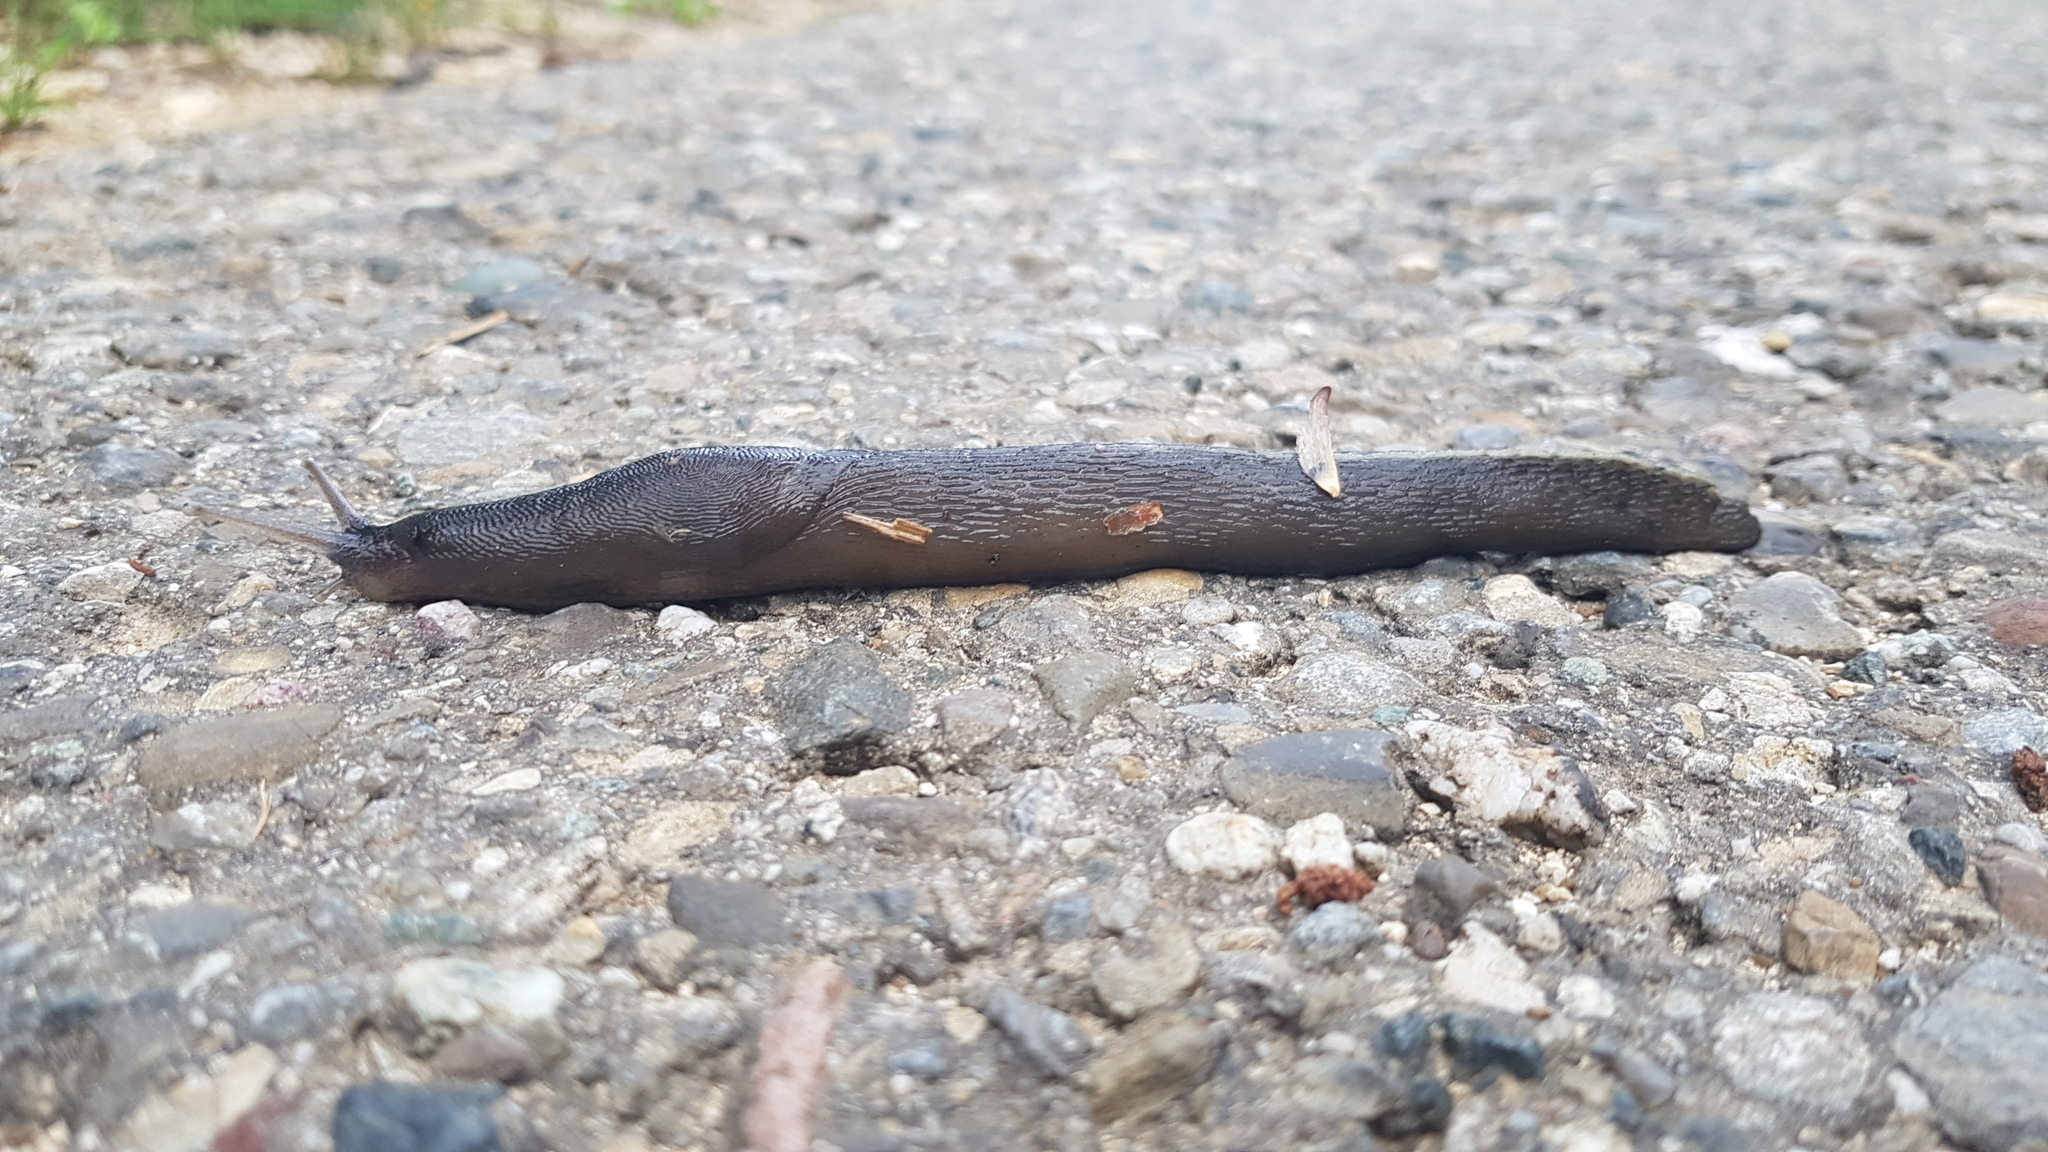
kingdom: Animalia
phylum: Mollusca
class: Gastropoda
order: Stylommatophora
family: Limacidae
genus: Limax
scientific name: Limax cinereoniger
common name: Ash-black slug
